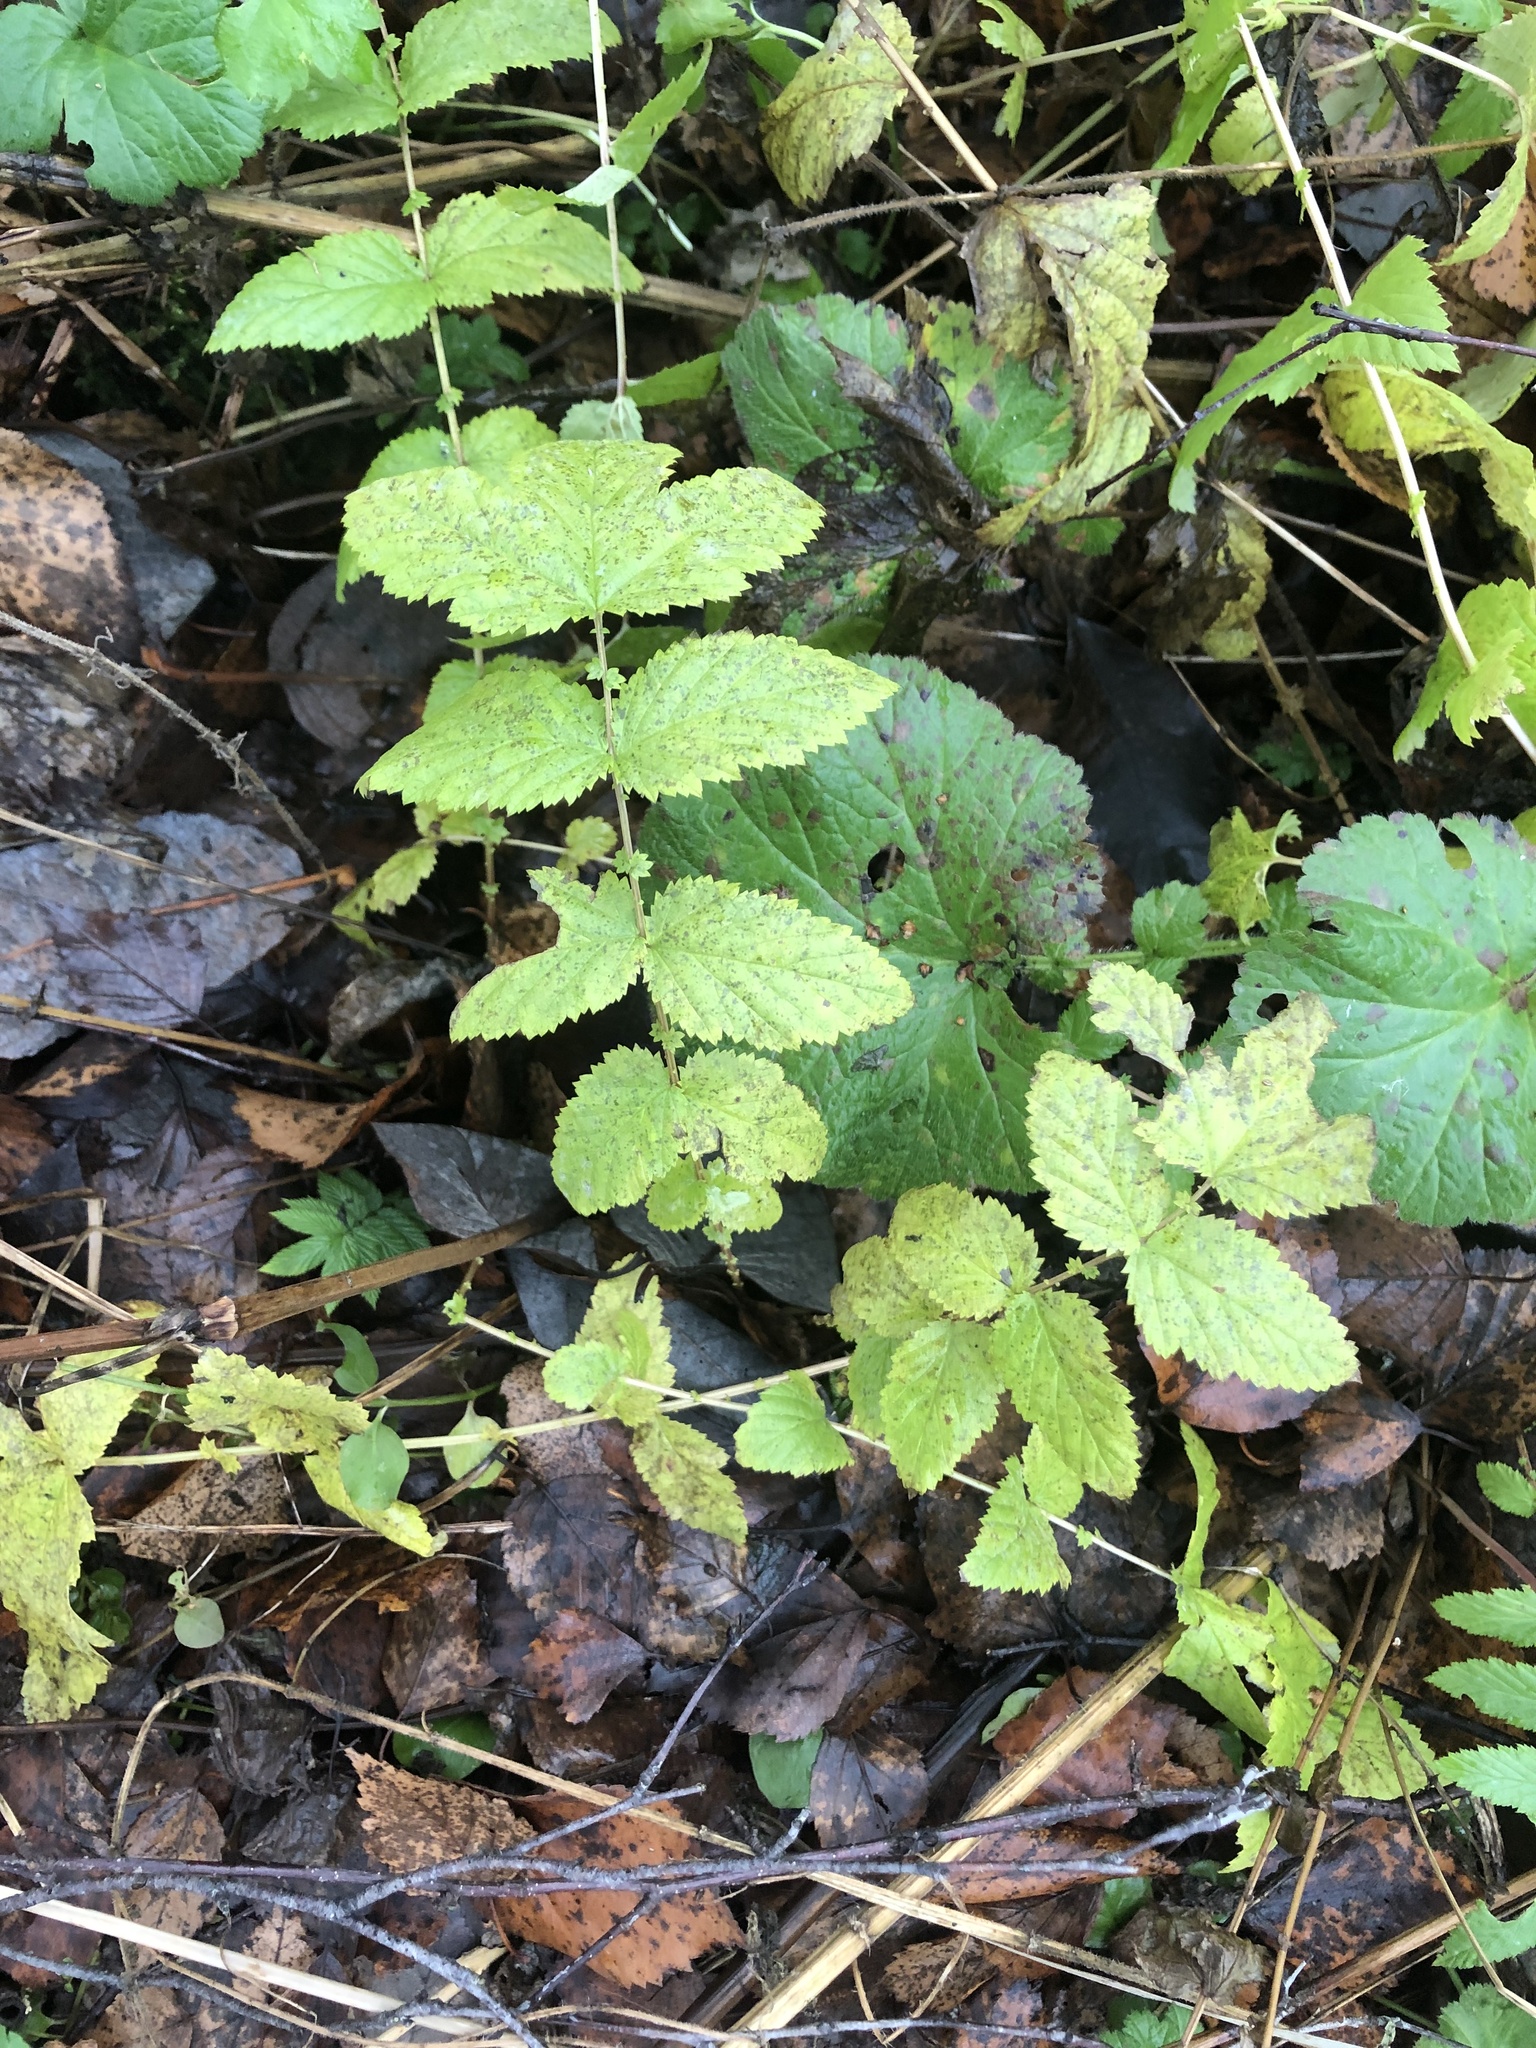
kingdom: Plantae
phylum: Tracheophyta
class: Magnoliopsida
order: Rosales
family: Rosaceae
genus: Filipendula
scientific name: Filipendula ulmaria
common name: Meadowsweet
